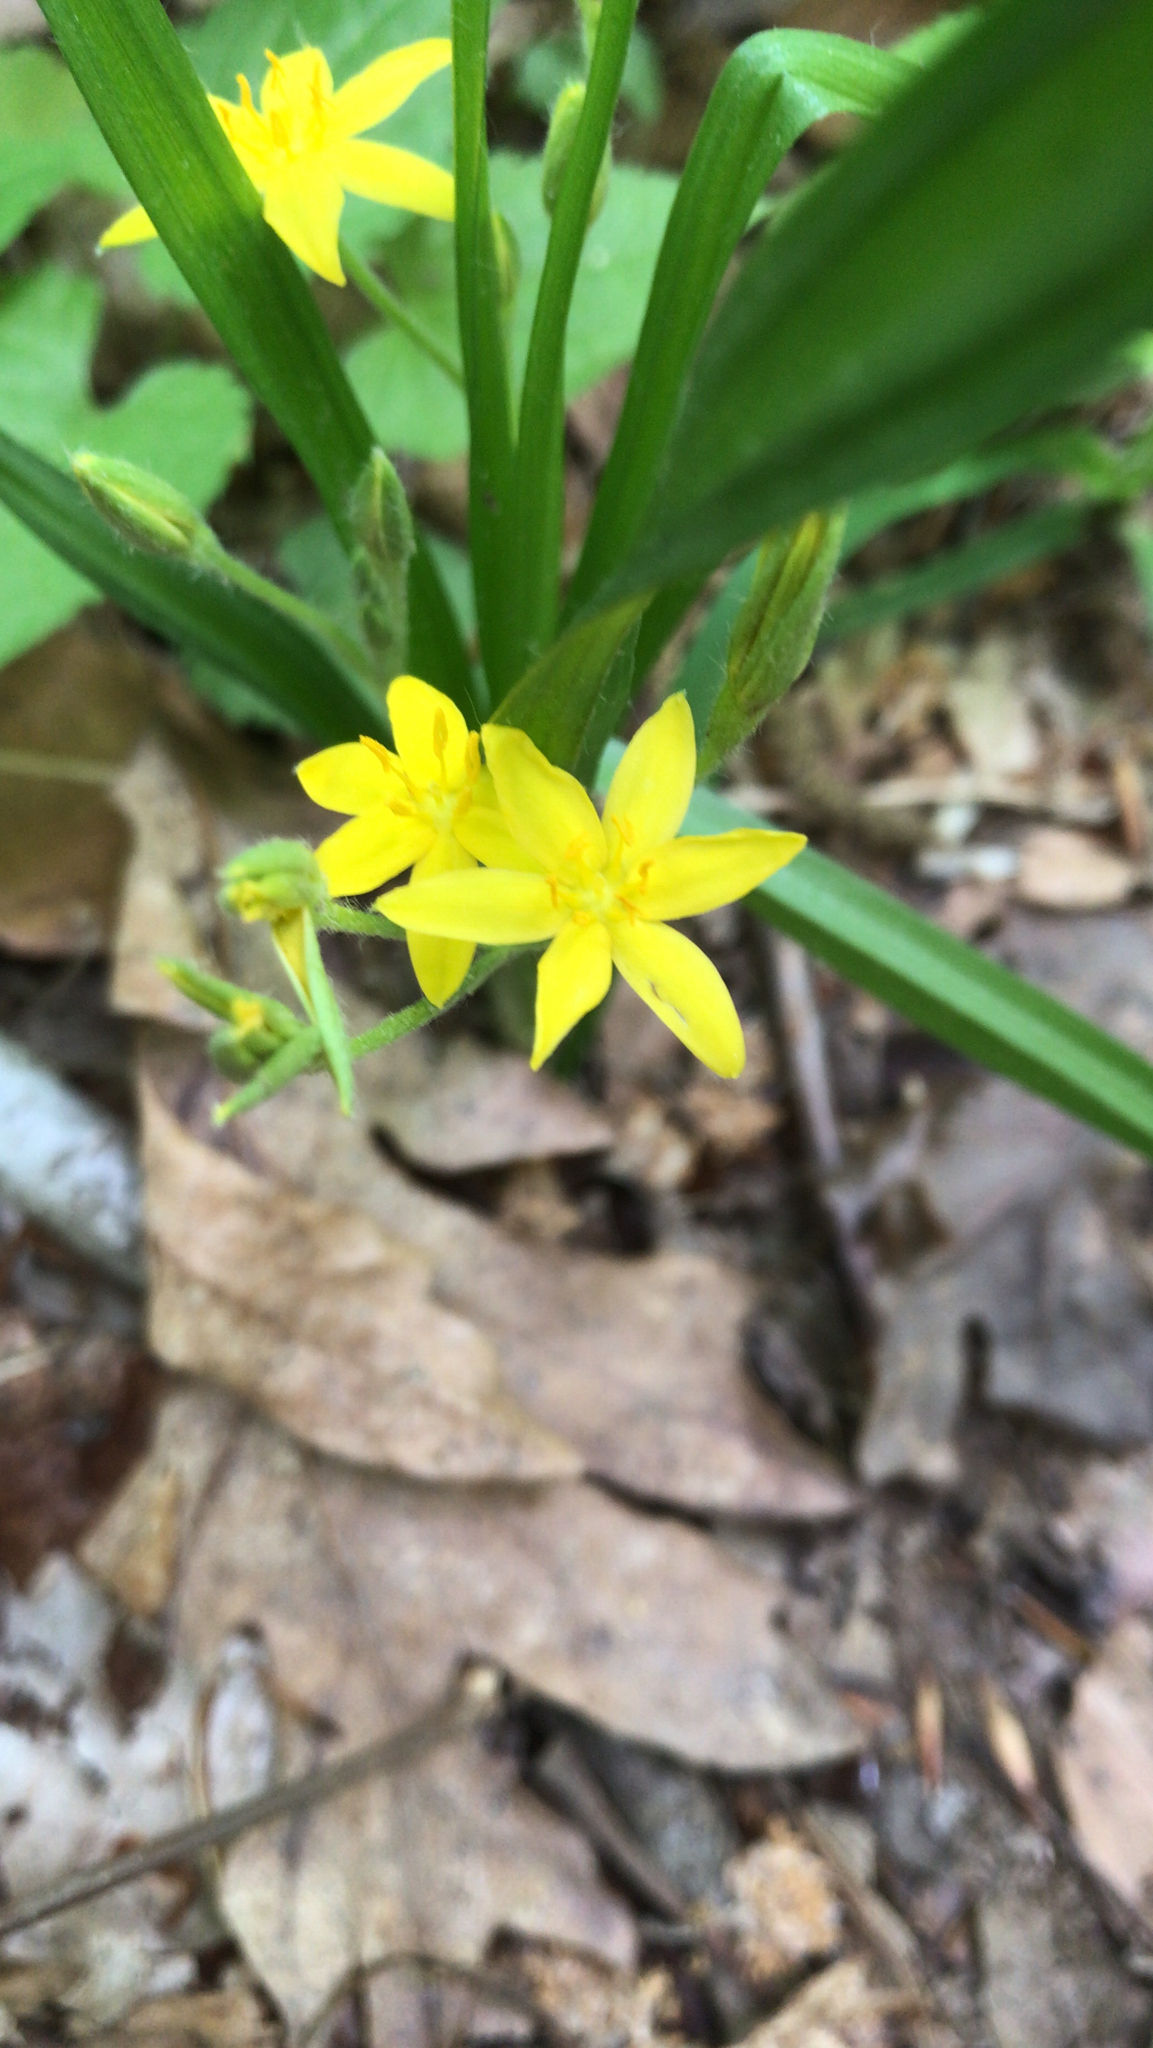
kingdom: Plantae
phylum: Tracheophyta
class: Liliopsida
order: Asparagales
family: Hypoxidaceae
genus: Hypoxis
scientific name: Hypoxis hirsuta
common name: Common goldstar
